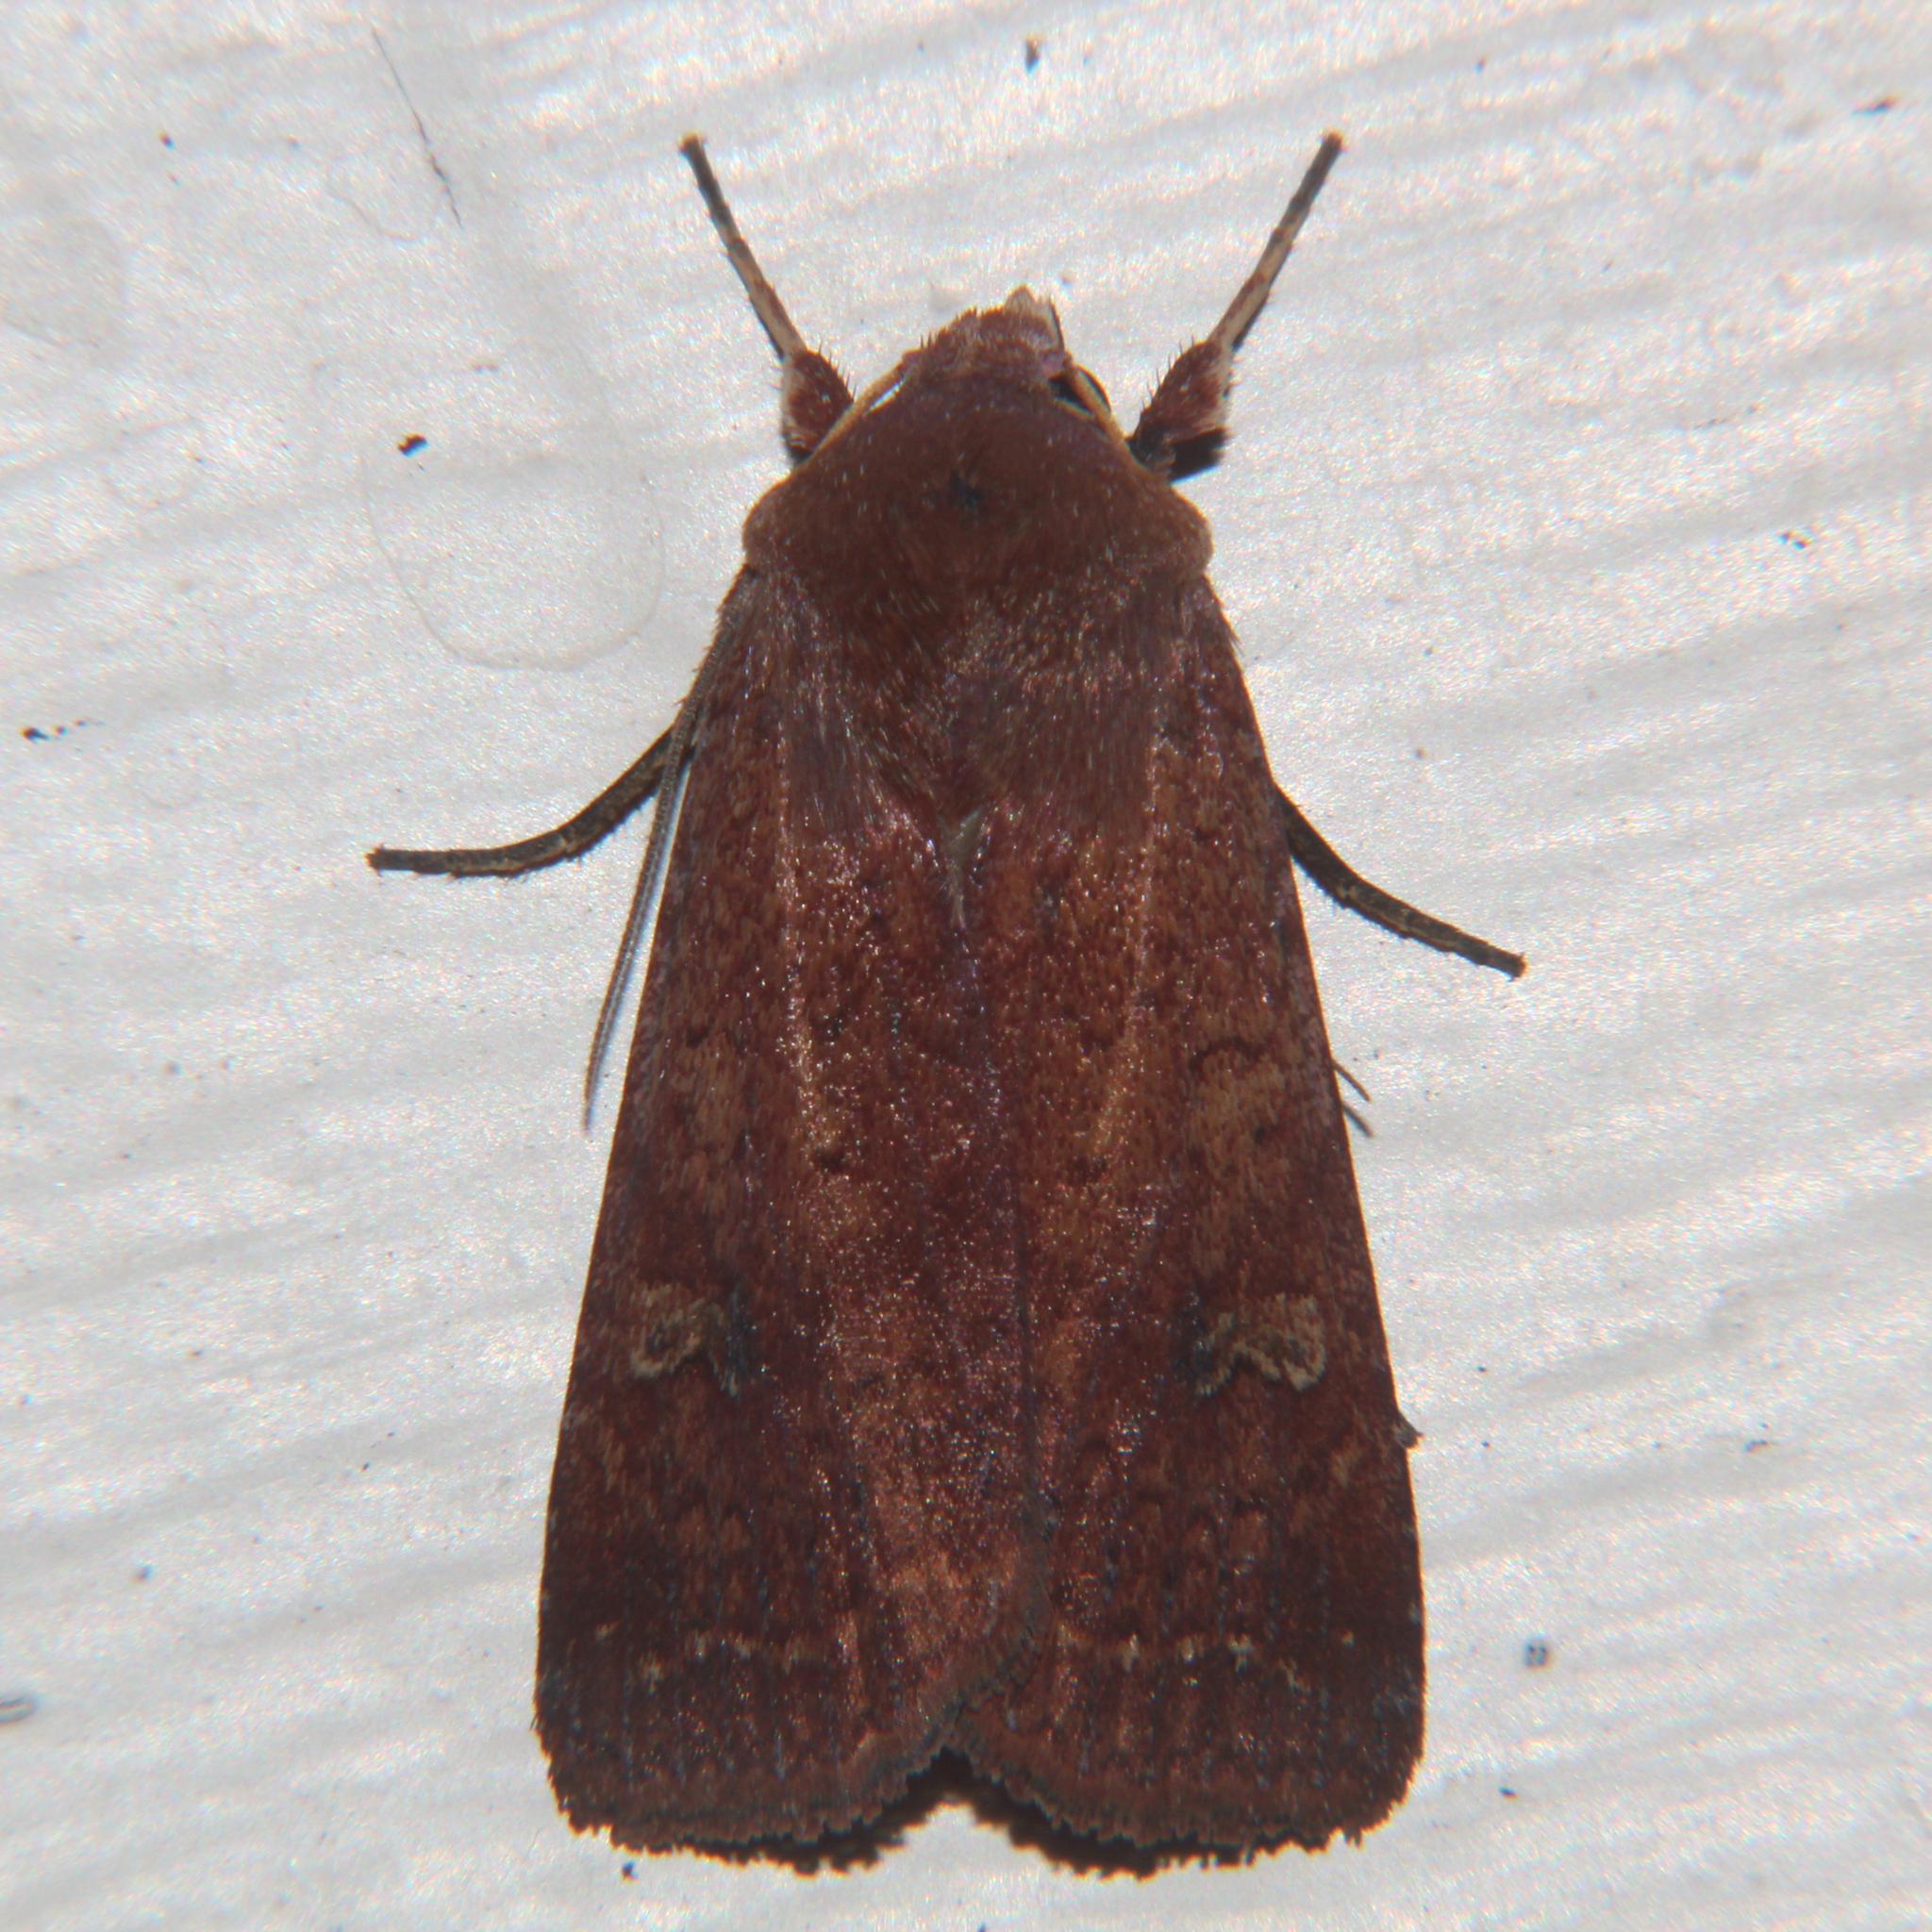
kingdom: Animalia
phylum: Arthropoda
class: Insecta
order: Lepidoptera
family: Noctuidae
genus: Diarsia
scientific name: Diarsia intermixta
